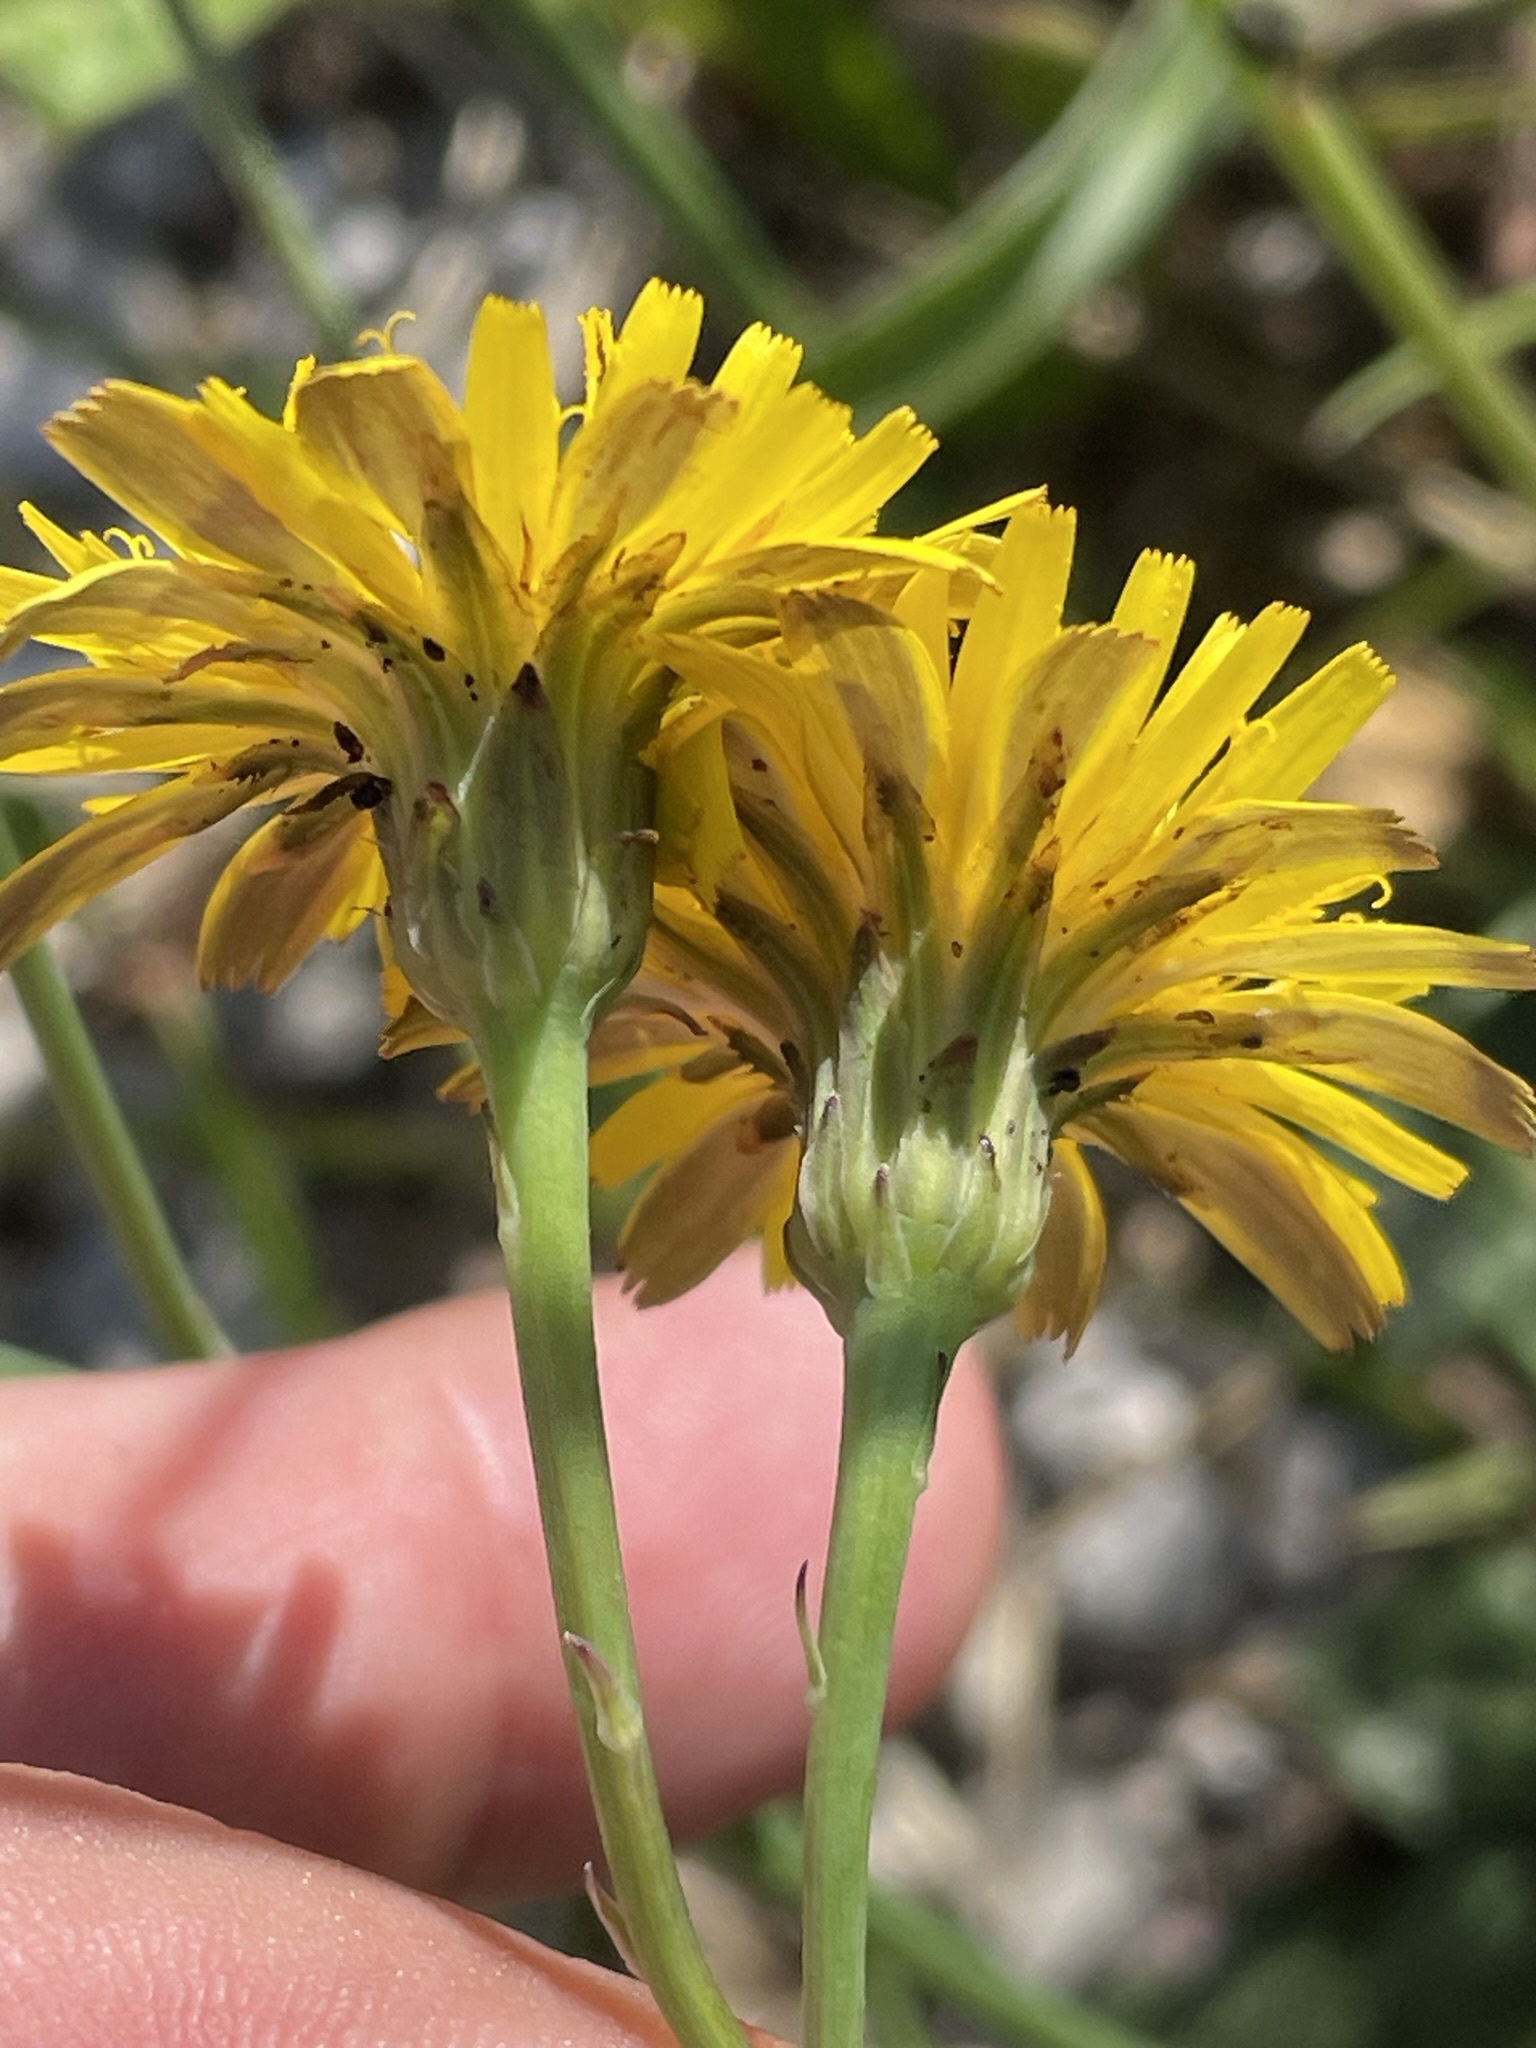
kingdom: Plantae
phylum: Tracheophyta
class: Magnoliopsida
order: Asterales
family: Asteraceae
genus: Hypochaeris
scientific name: Hypochaeris radicata
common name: Flatweed
